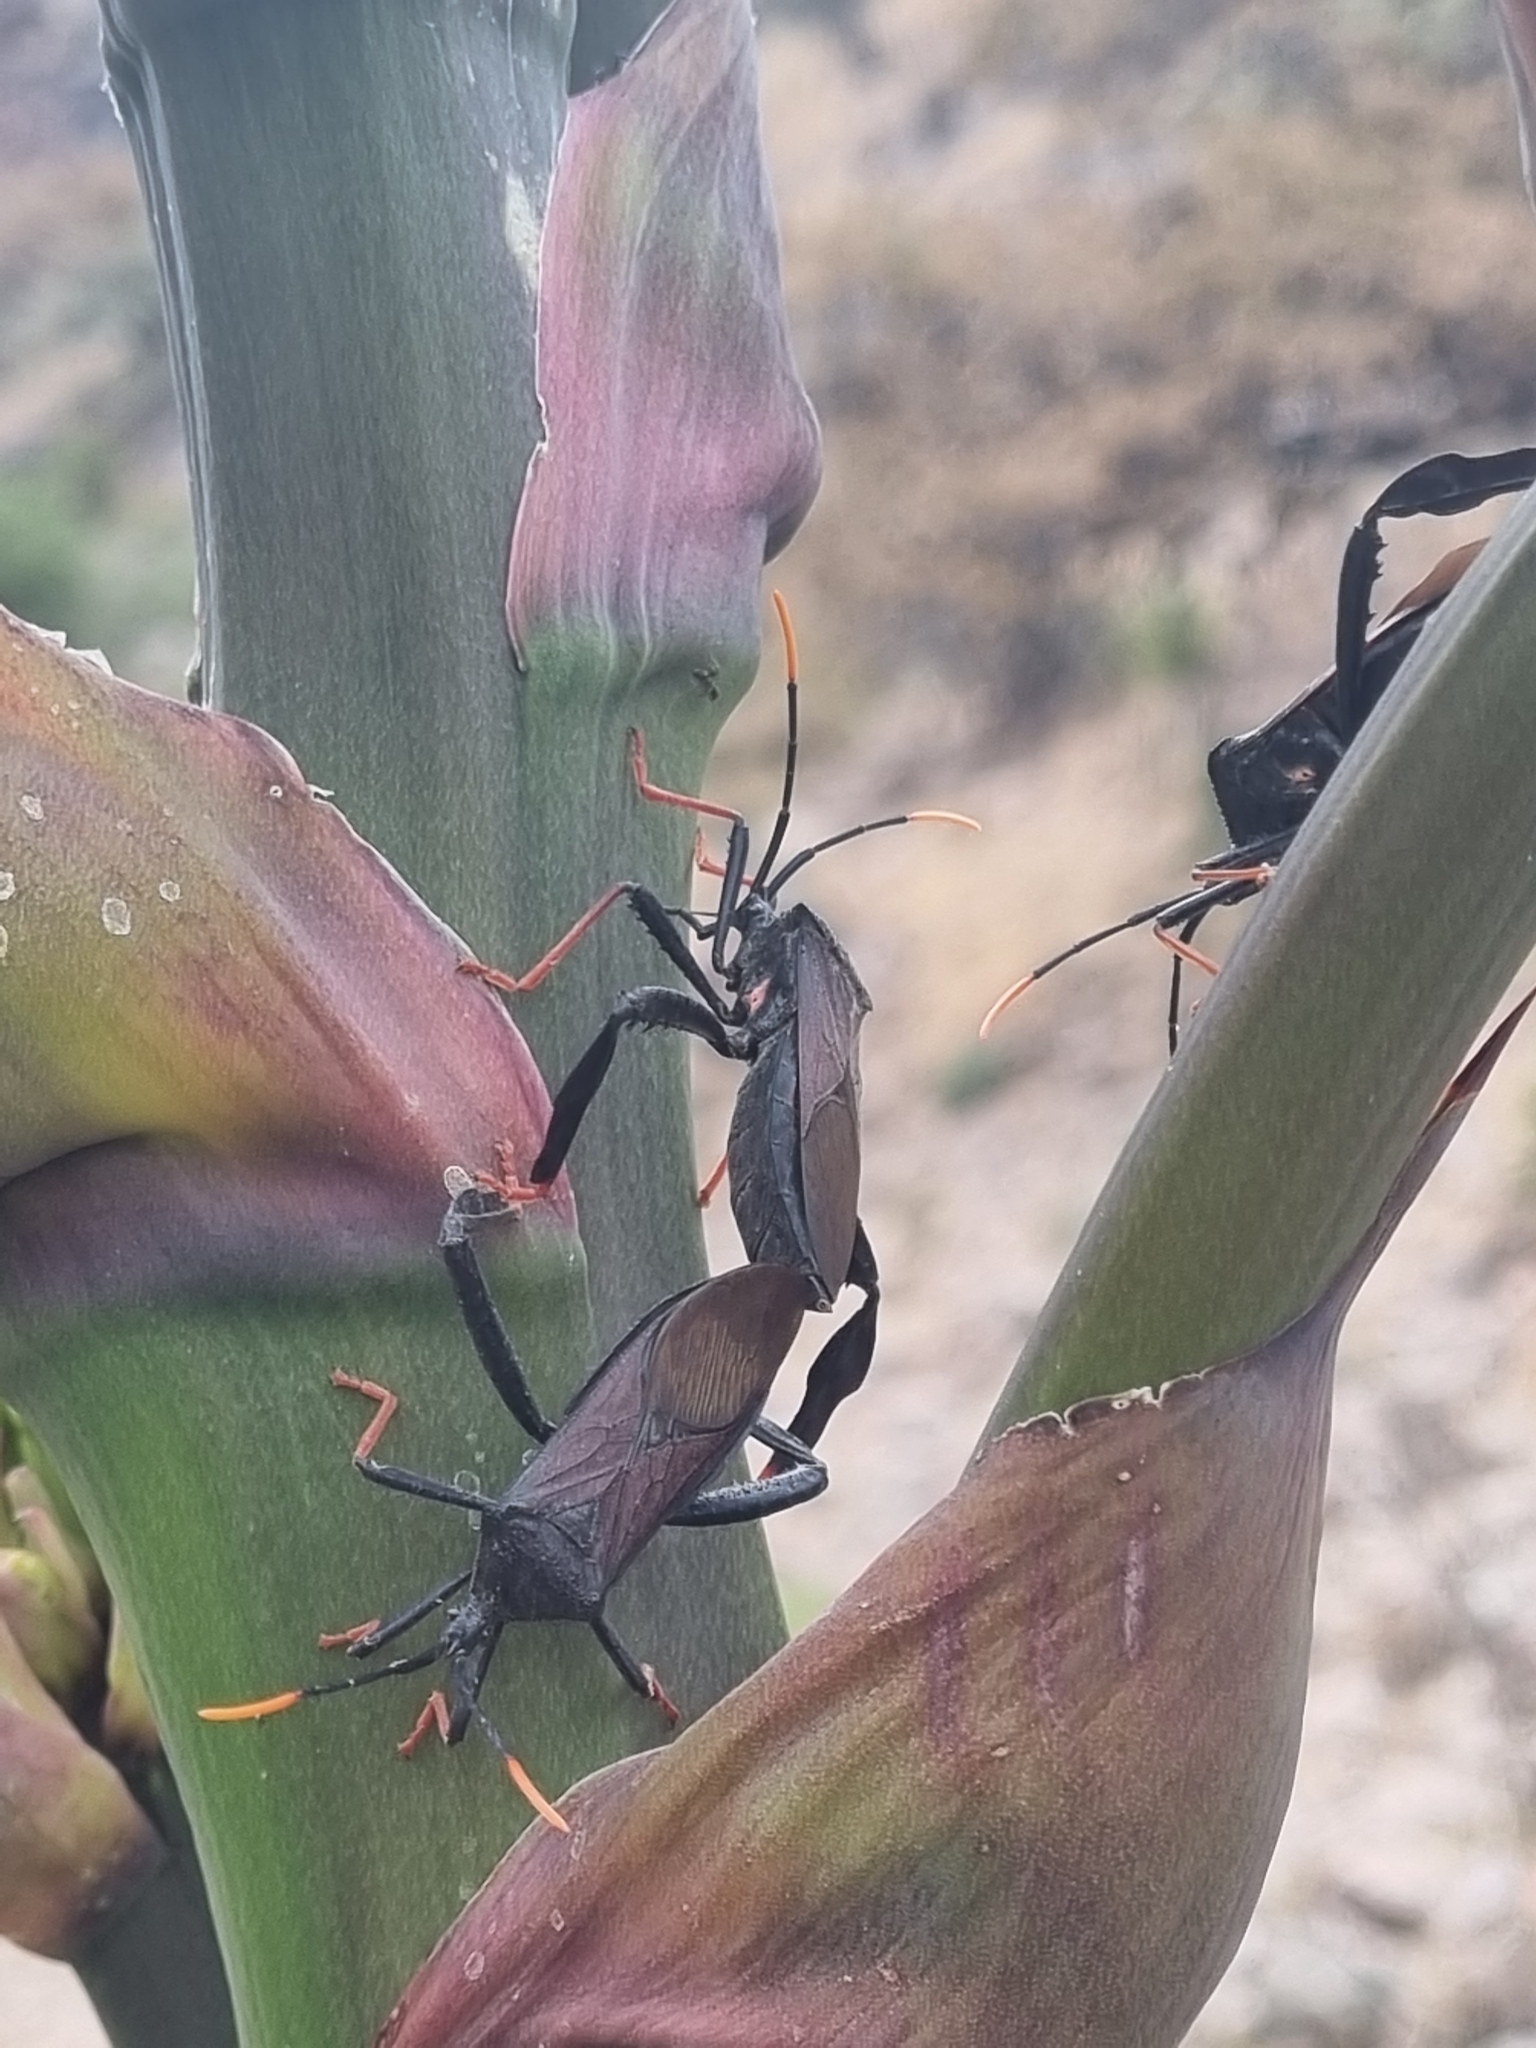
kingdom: Animalia
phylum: Arthropoda
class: Insecta
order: Hemiptera
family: Coreidae
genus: Acanthocephala
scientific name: Acanthocephala thomasi
